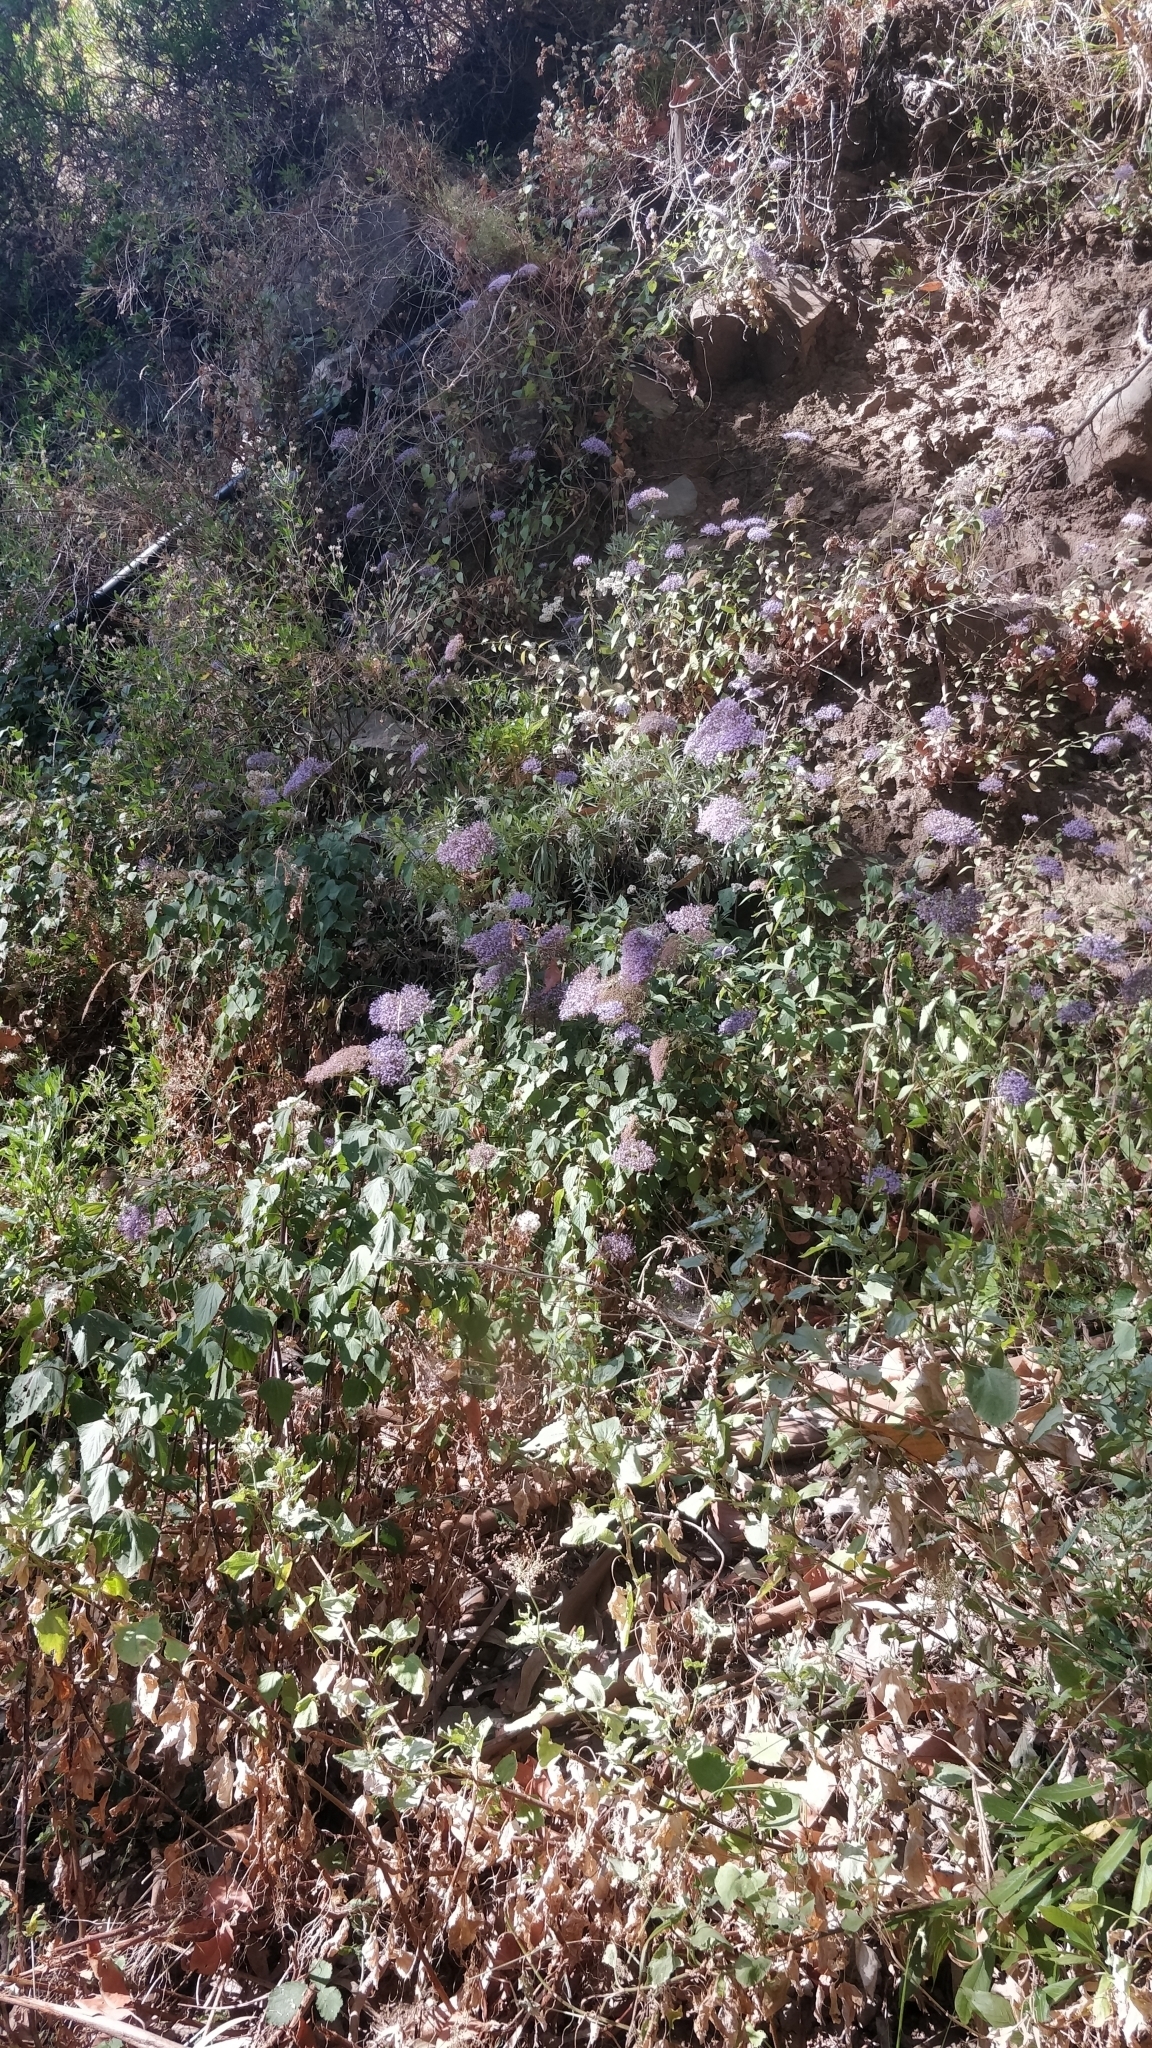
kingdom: Plantae
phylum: Tracheophyta
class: Magnoliopsida
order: Asterales
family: Campanulaceae
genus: Trachelium
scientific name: Trachelium caeruleum
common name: Throatwort
